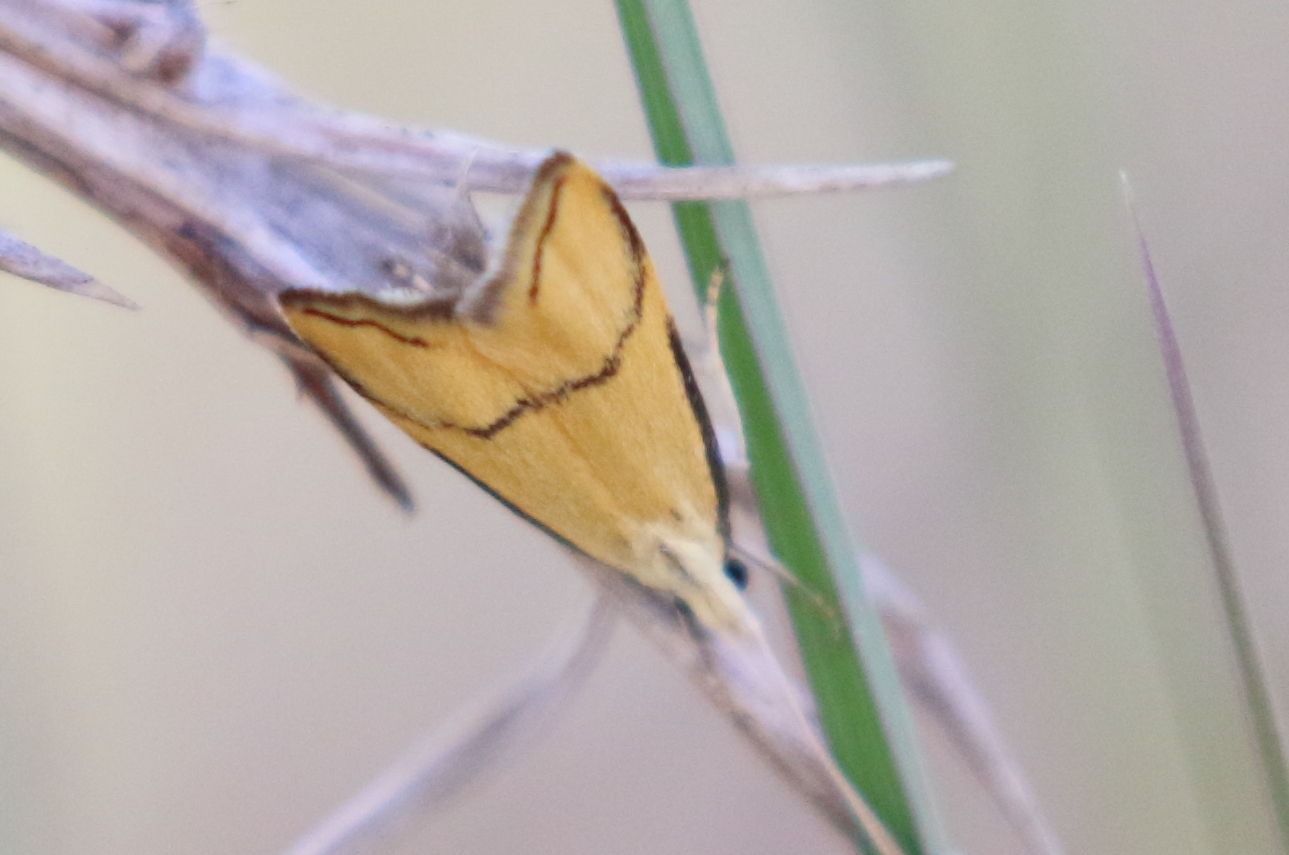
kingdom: Animalia
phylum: Arthropoda
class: Insecta
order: Lepidoptera
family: Lecithoceridae
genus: Crocanthes
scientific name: Crocanthes perigrapta
